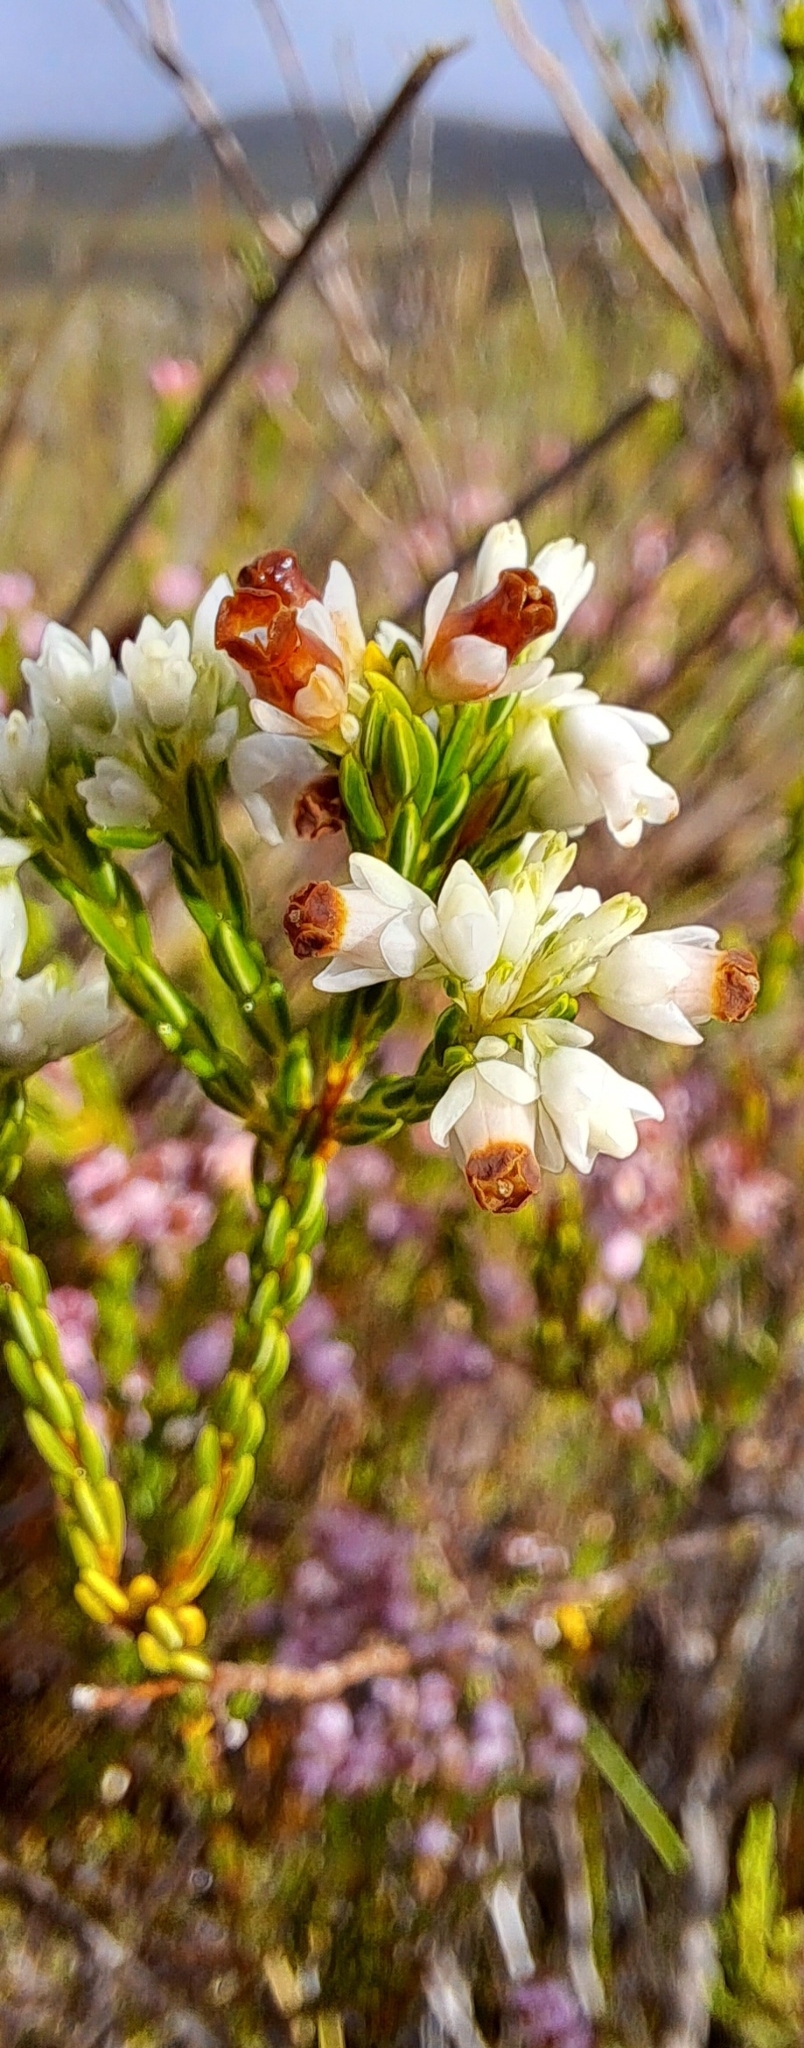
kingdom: Plantae
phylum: Tracheophyta
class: Magnoliopsida
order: Ericales
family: Ericaceae
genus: Erica
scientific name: Erica corifolia
